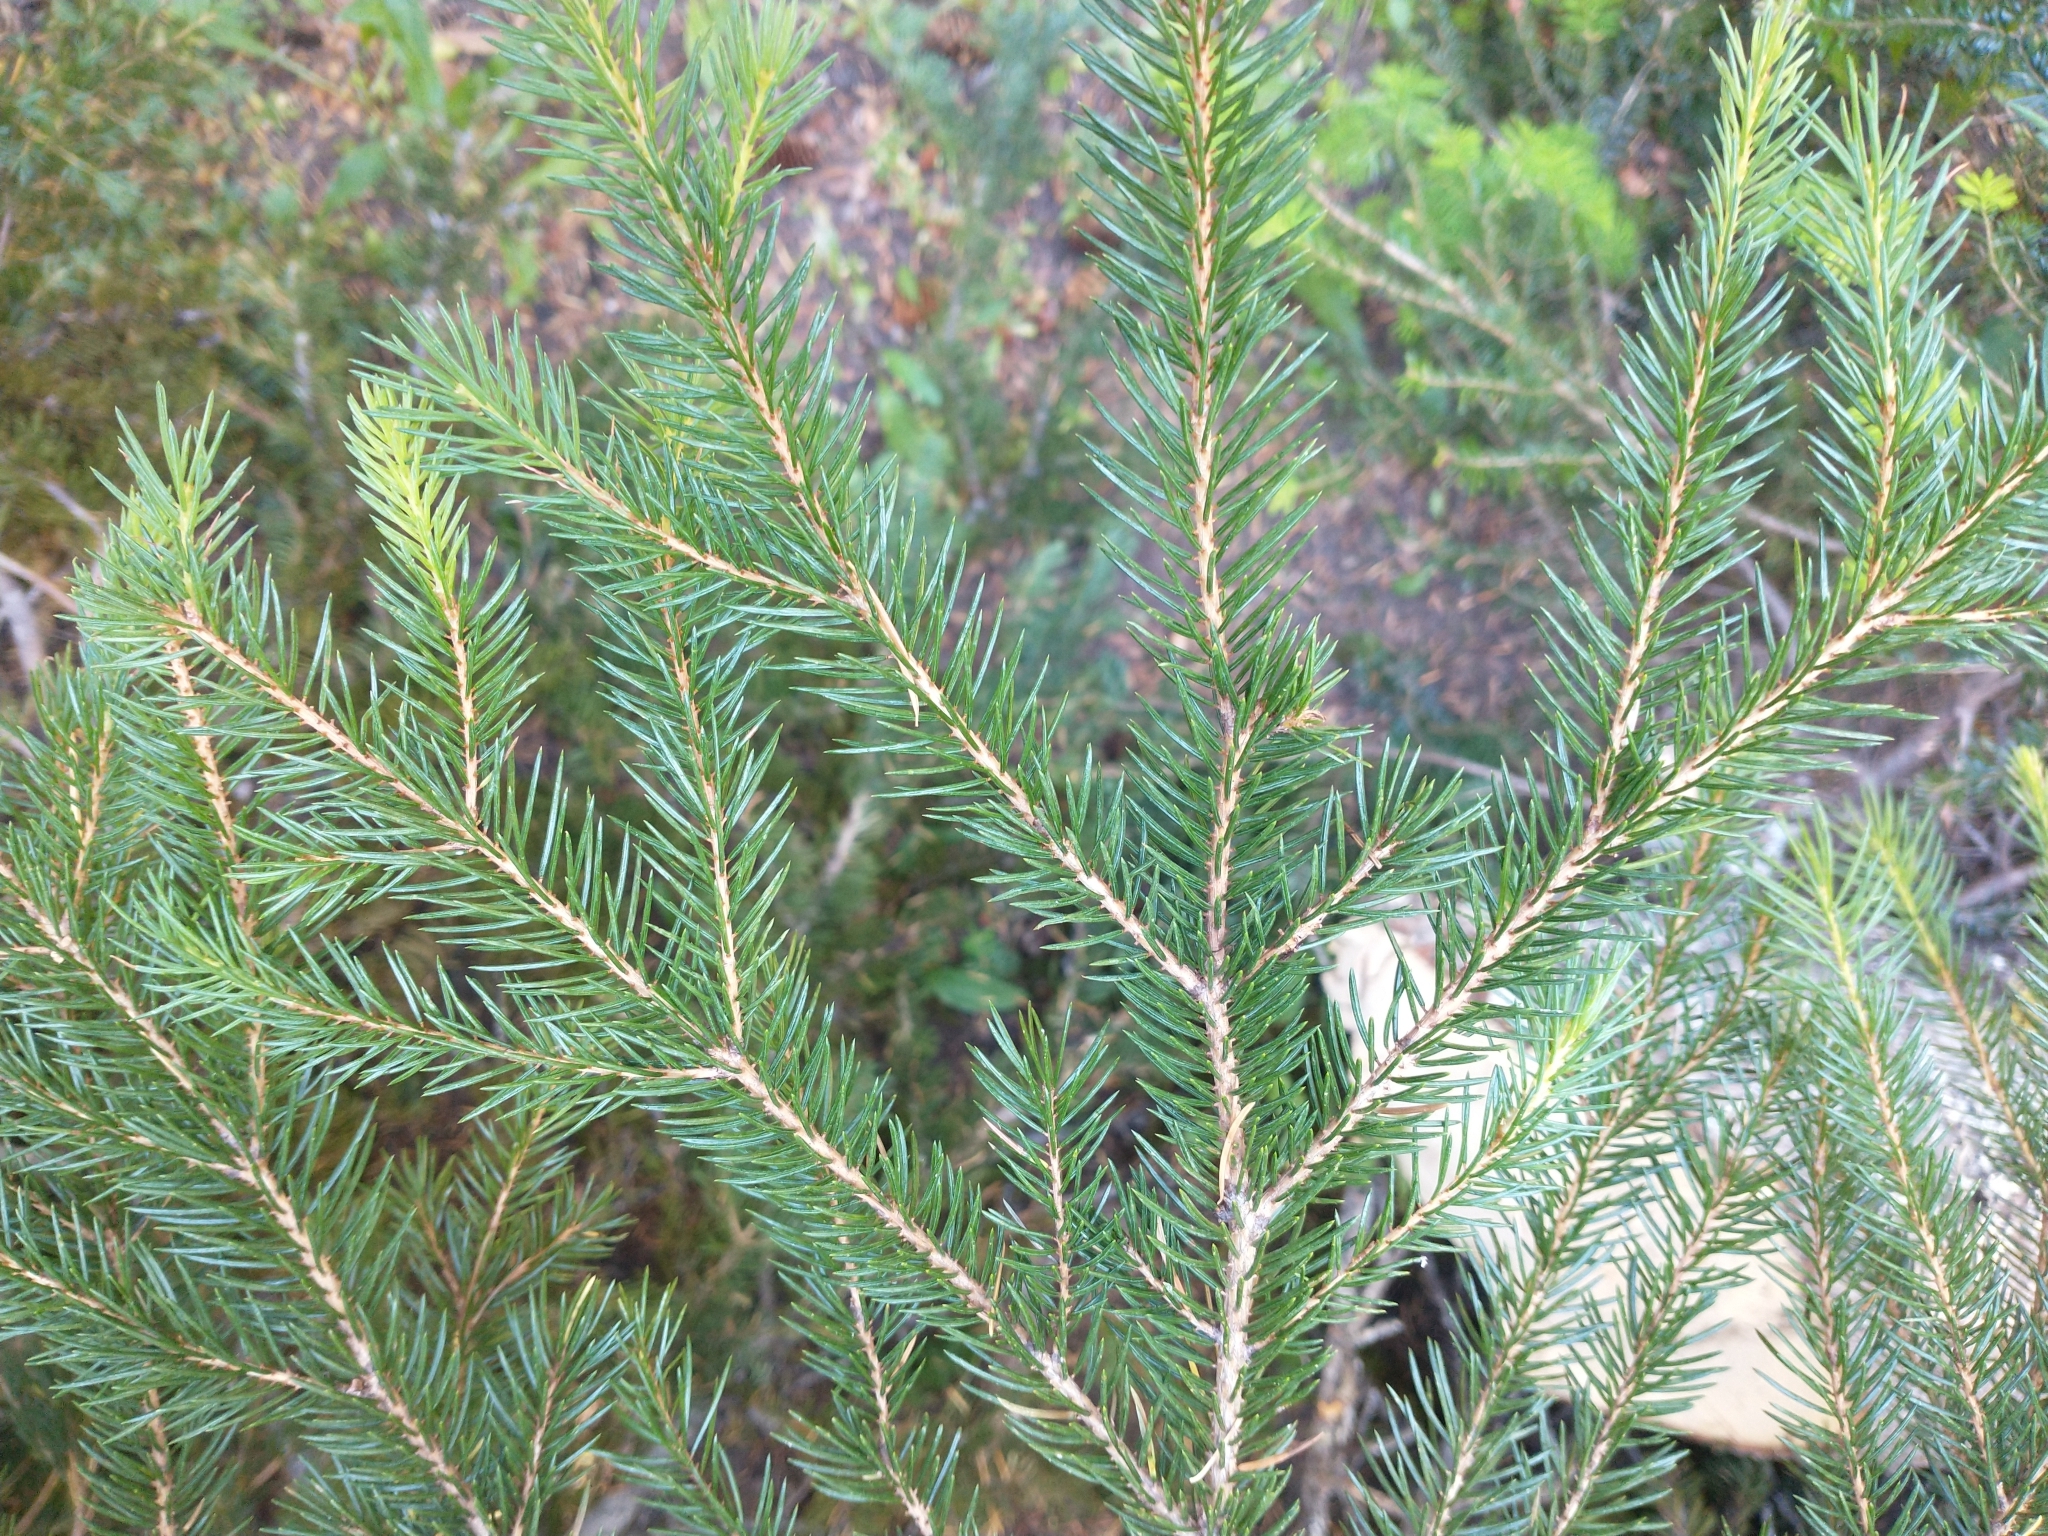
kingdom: Plantae
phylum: Tracheophyta
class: Pinopsida
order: Pinales
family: Pinaceae
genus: Picea
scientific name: Picea engelmannii
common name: Engelmann spruce
